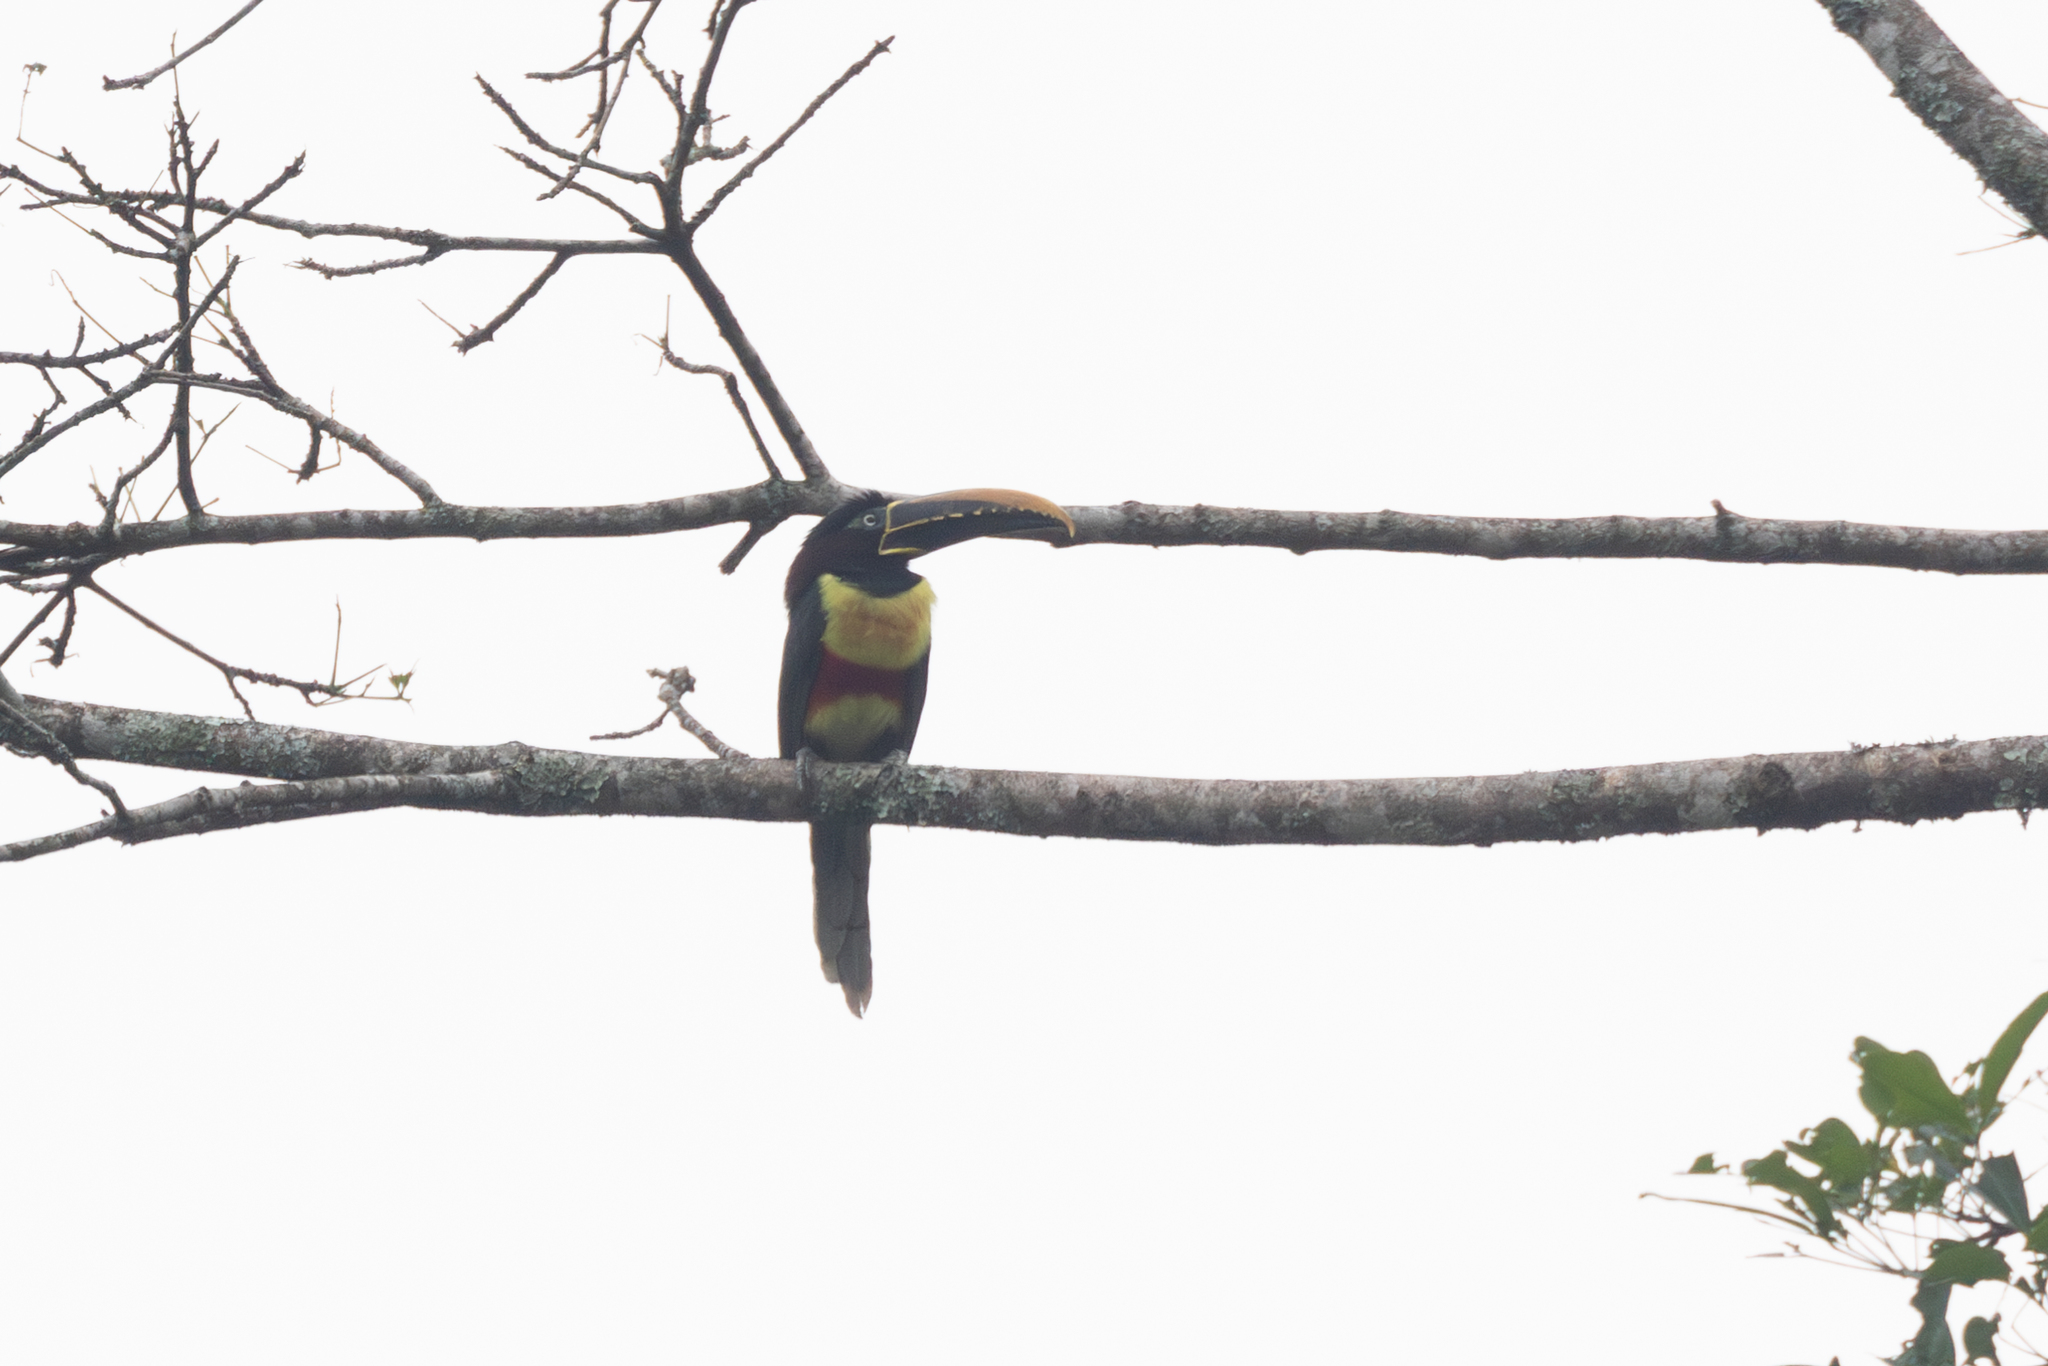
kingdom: Animalia
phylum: Chordata
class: Aves
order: Piciformes
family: Ramphastidae
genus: Pteroglossus
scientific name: Pteroglossus castanotis
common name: Chestnut-eared aracari
